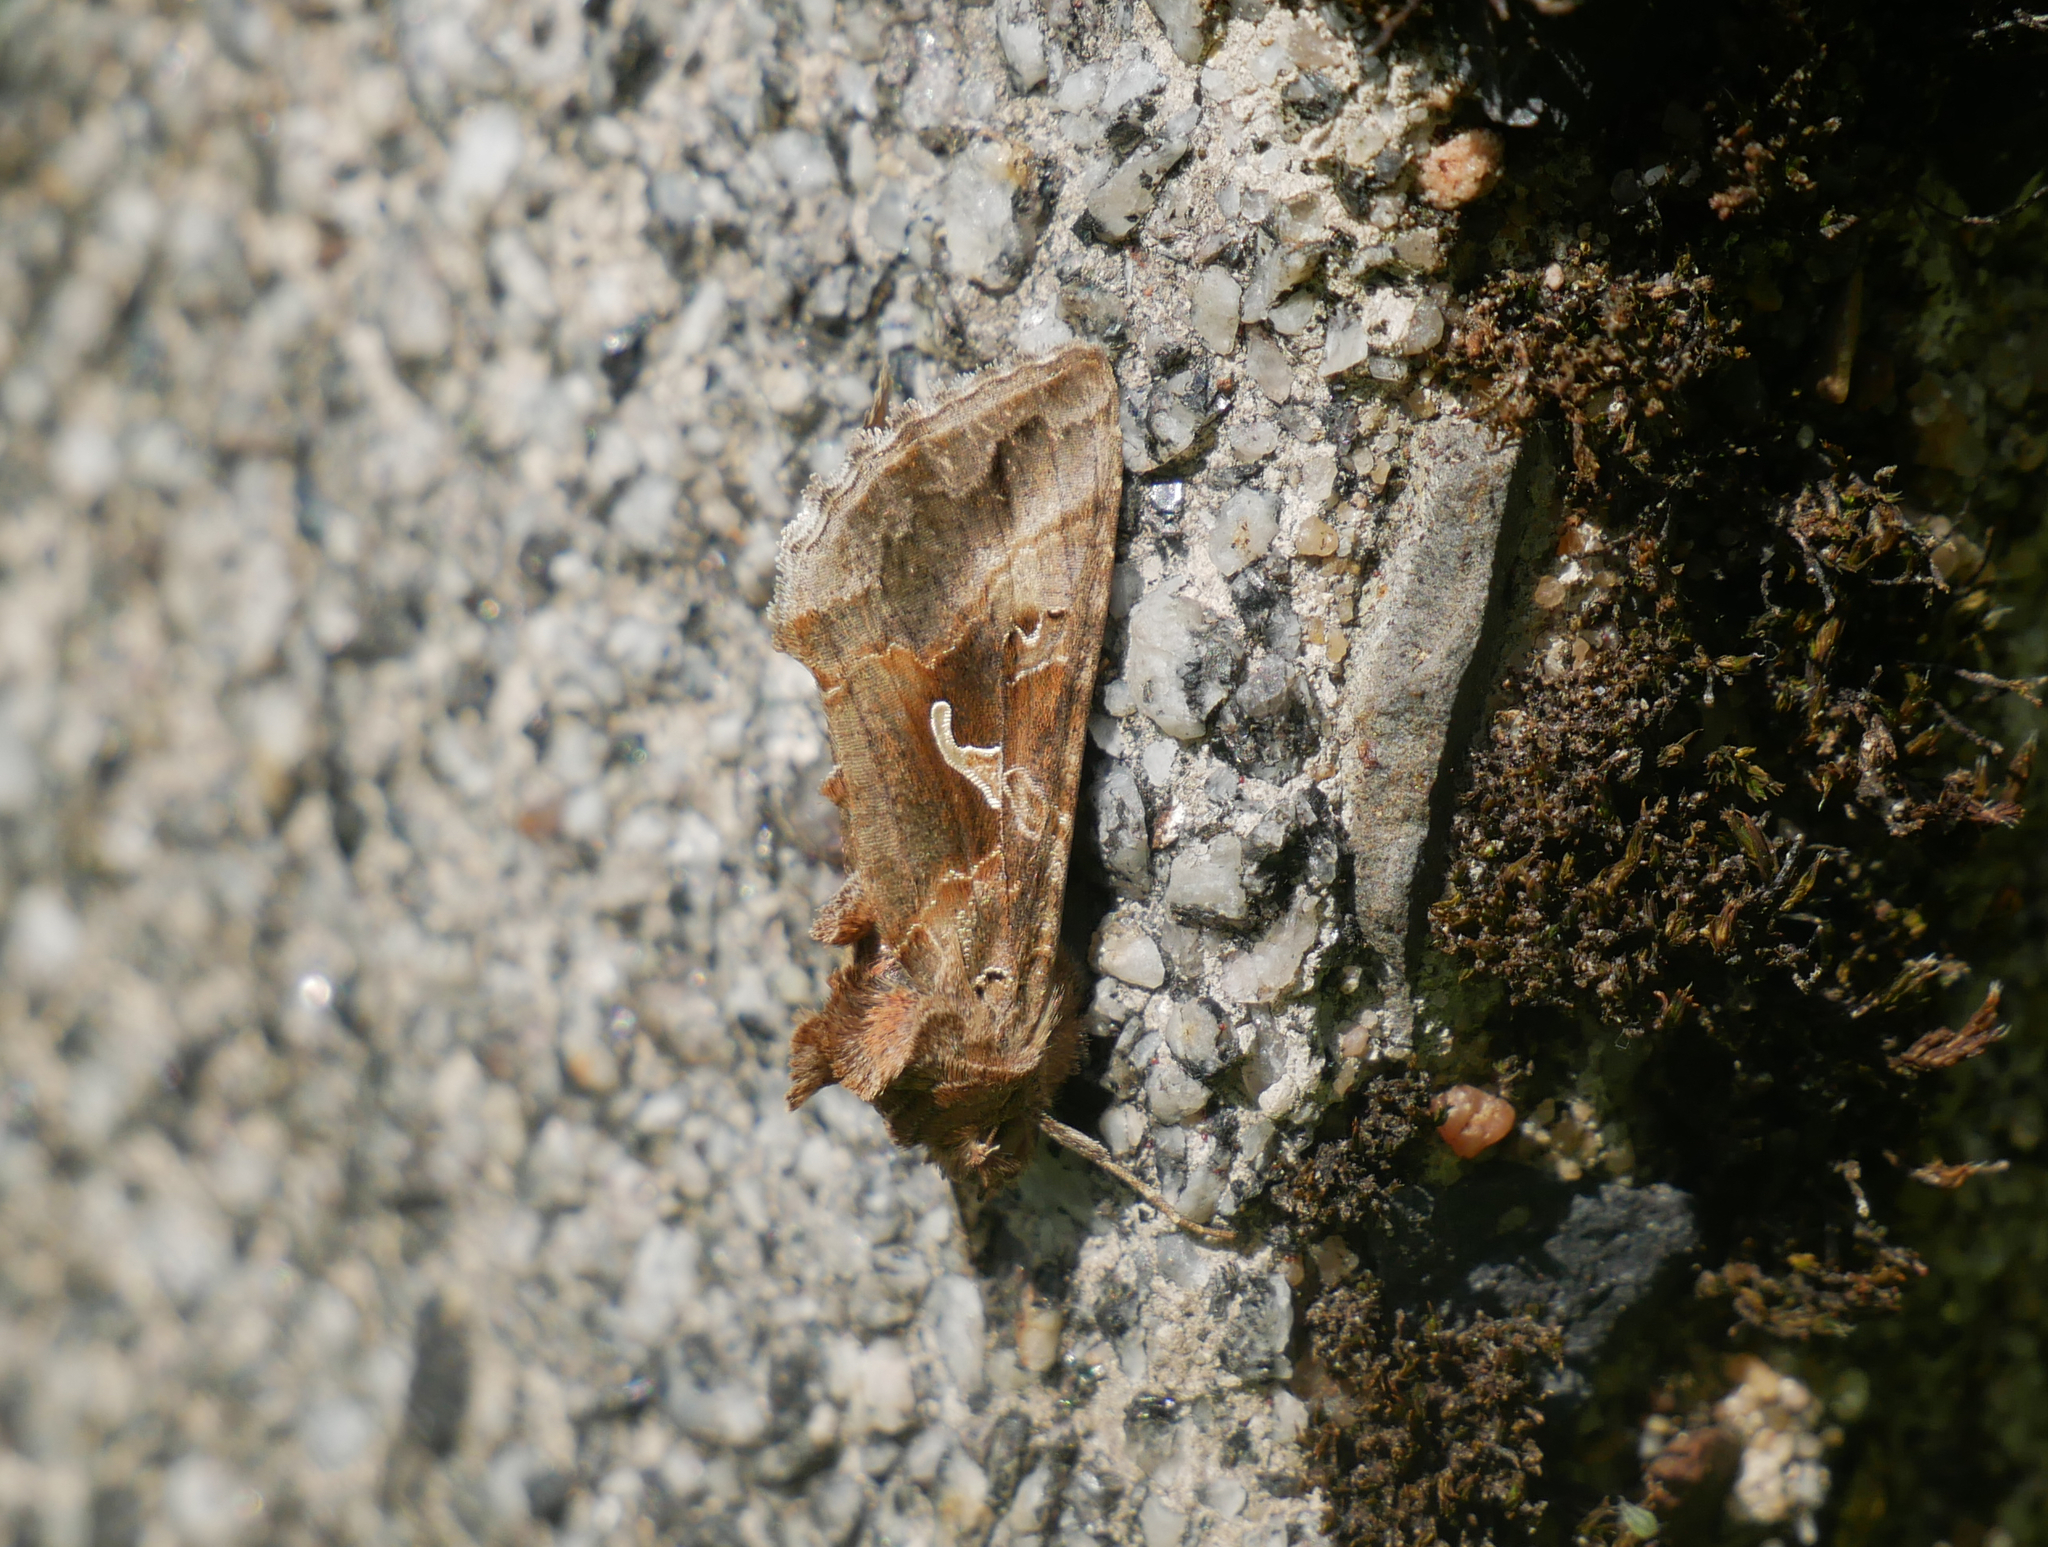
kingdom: Animalia
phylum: Arthropoda
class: Insecta
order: Lepidoptera
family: Noctuidae
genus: Autographa
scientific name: Autographa gamma
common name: Silver y
